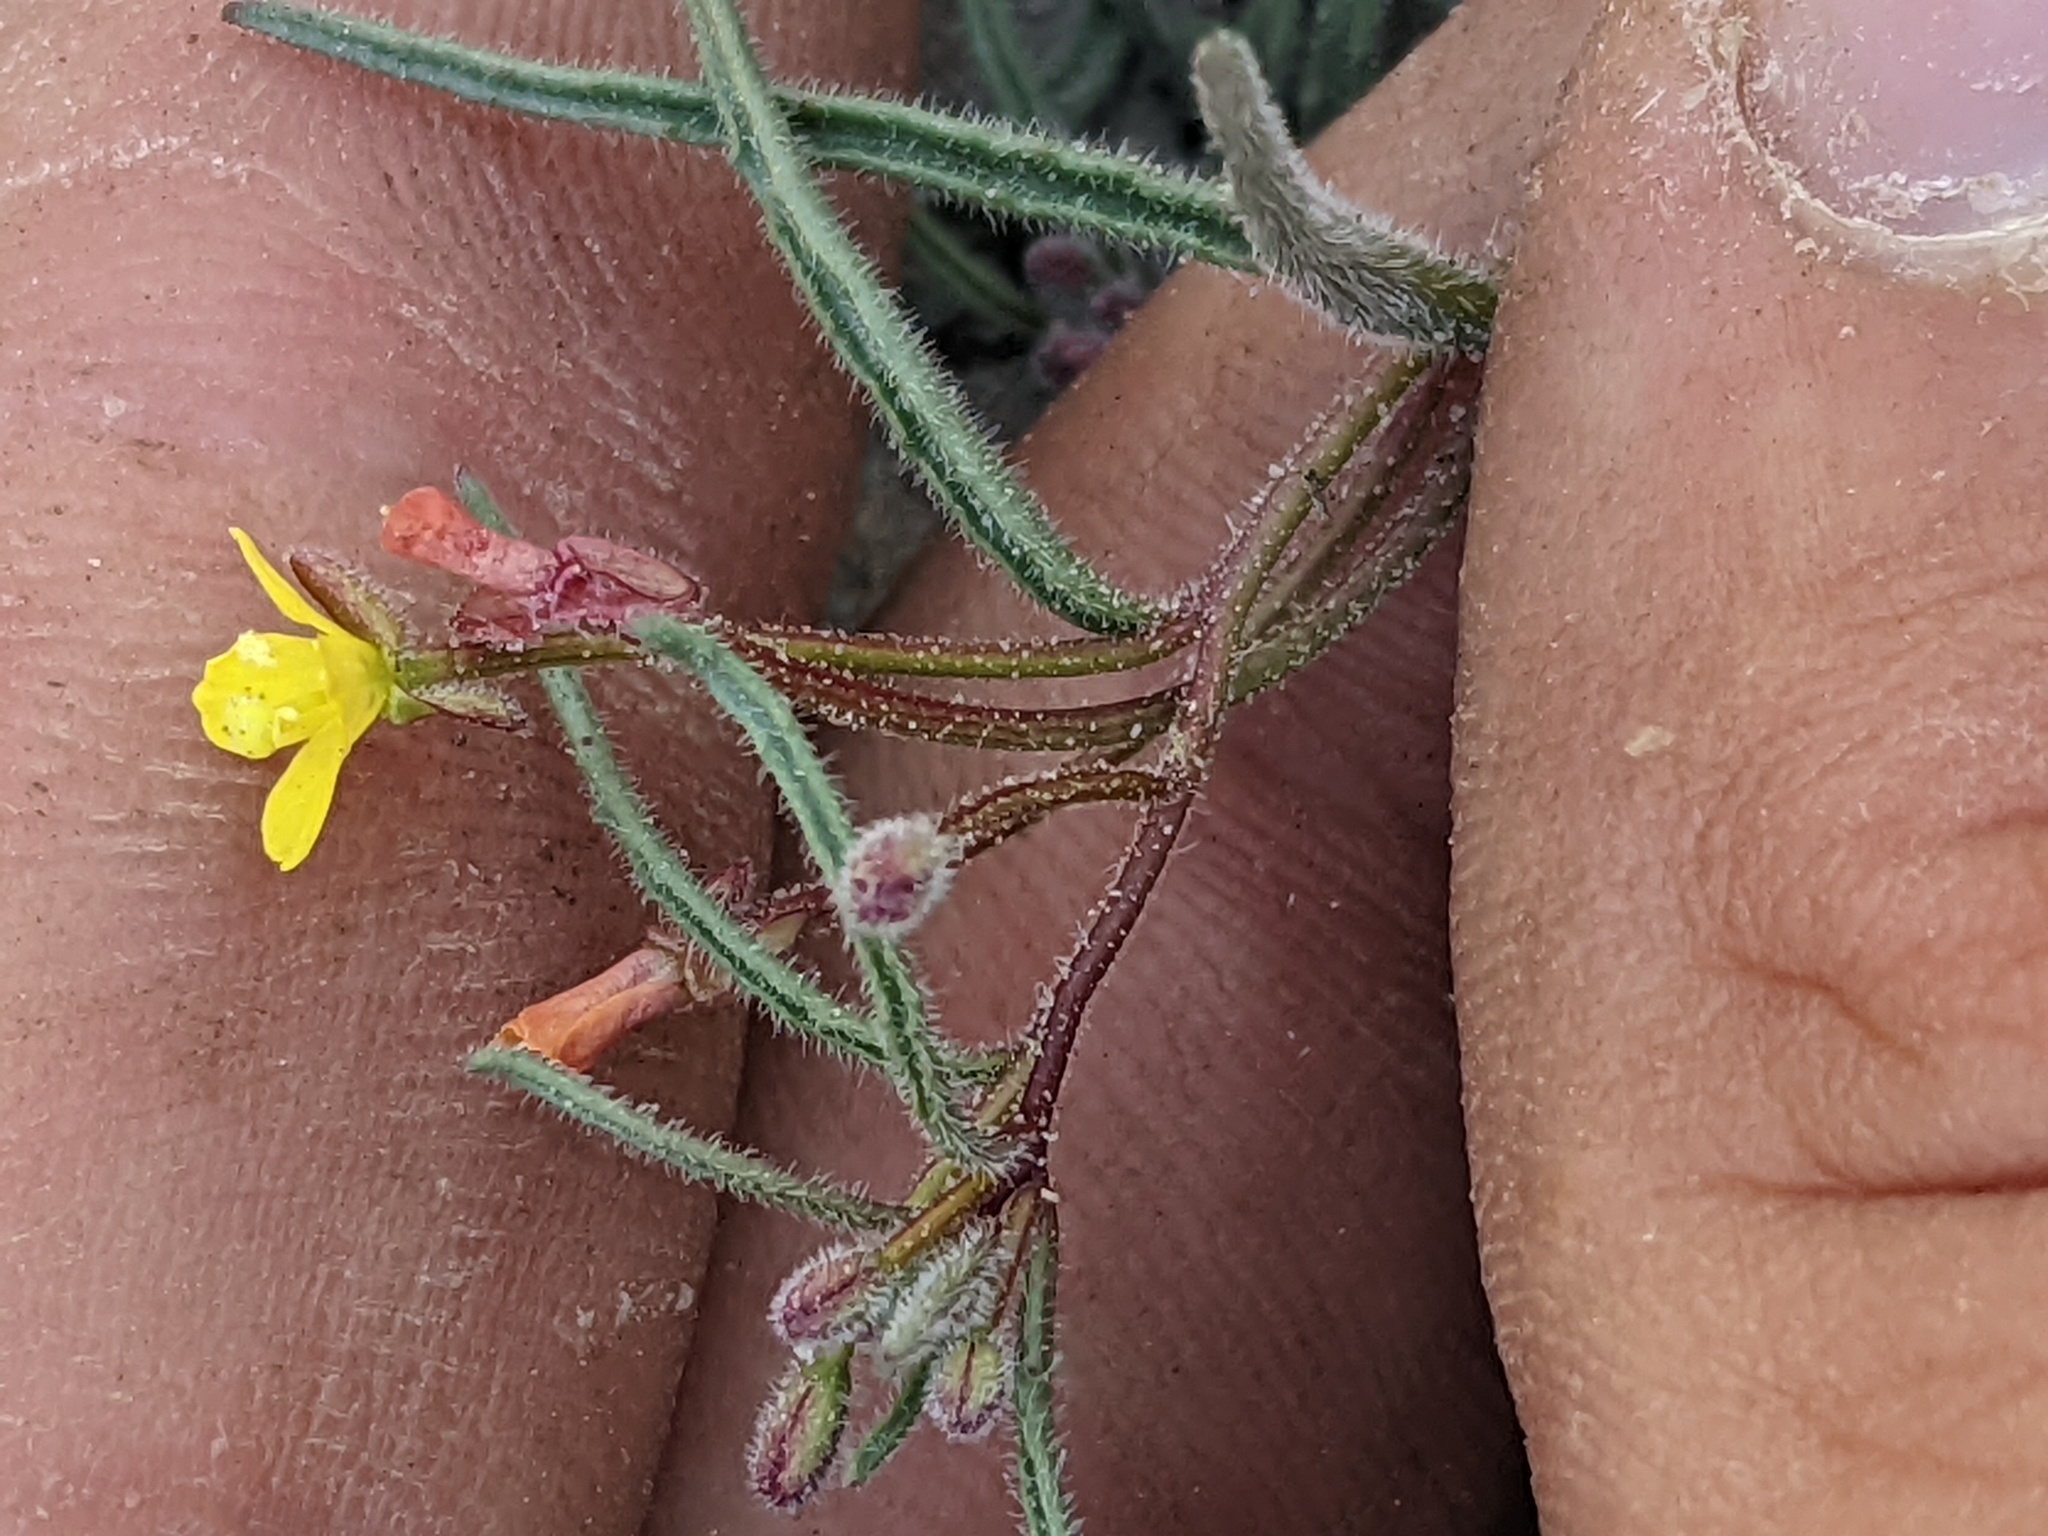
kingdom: Plantae
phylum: Tracheophyta
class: Magnoliopsida
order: Myrtales
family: Onagraceae
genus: Camissonia
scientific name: Camissonia pusilla
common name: Obscure camissonia
